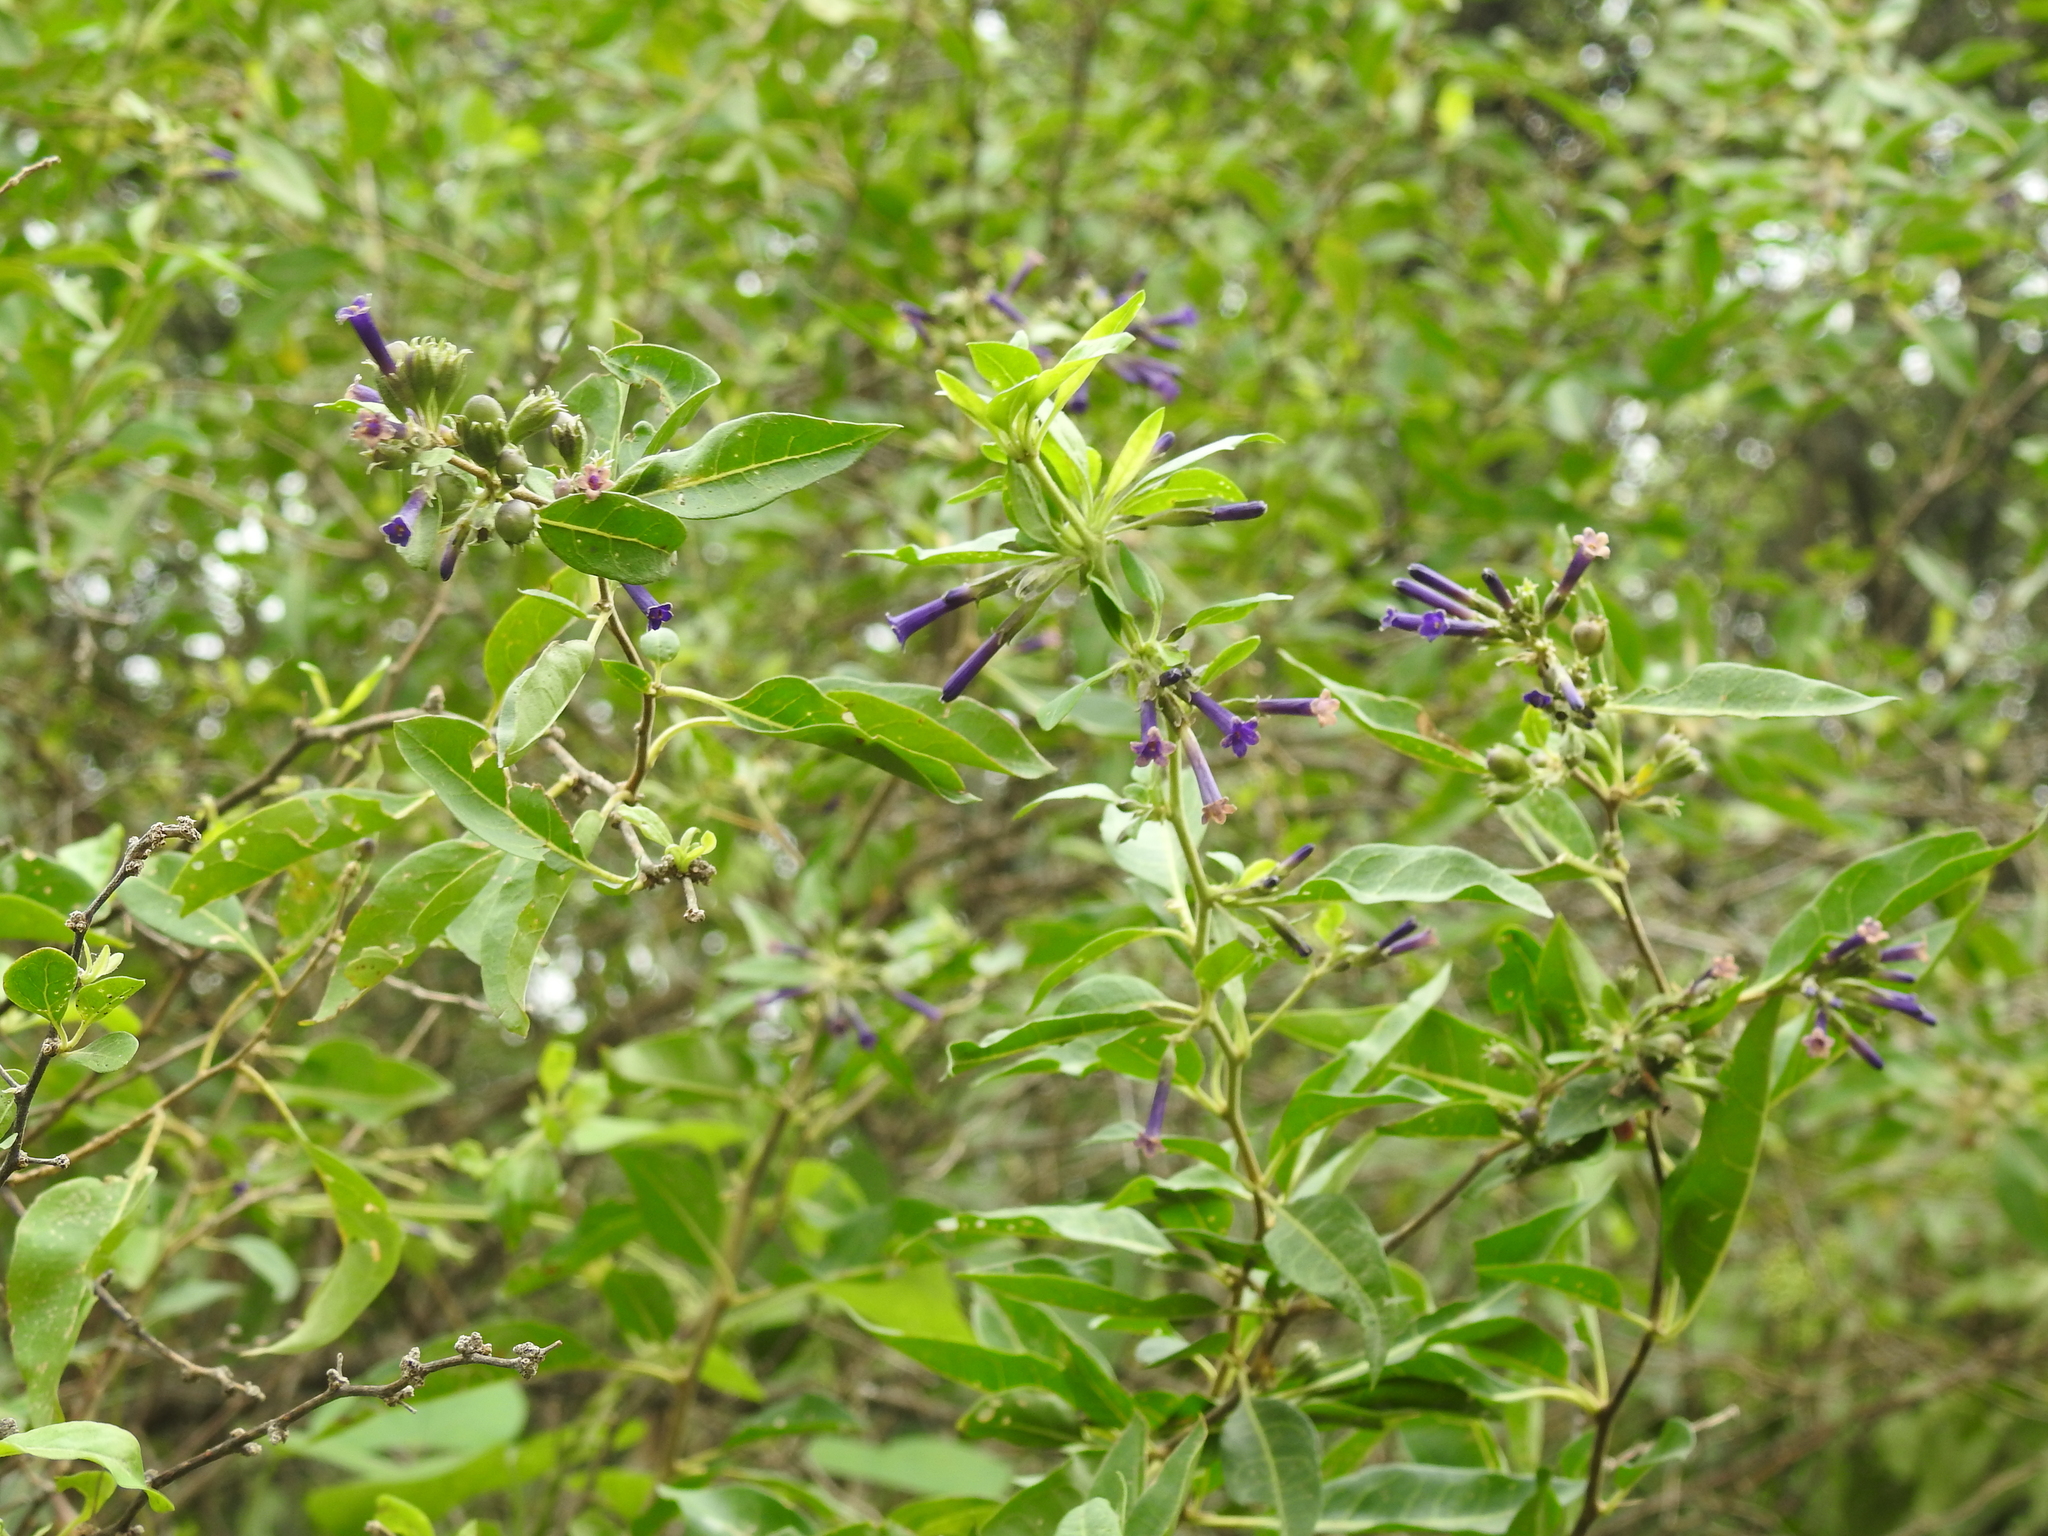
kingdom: Plantae
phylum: Tracheophyta
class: Magnoliopsida
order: Solanales
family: Solanaceae
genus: Lycium
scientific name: Lycium cestroides
